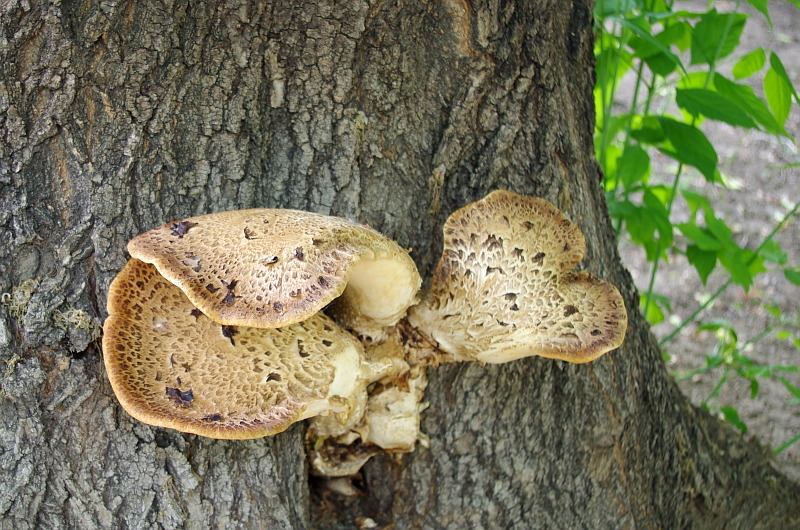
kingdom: Fungi
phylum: Basidiomycota
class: Agaricomycetes
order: Polyporales
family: Polyporaceae
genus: Cerioporus
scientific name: Cerioporus squamosus
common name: Dryad's saddle
